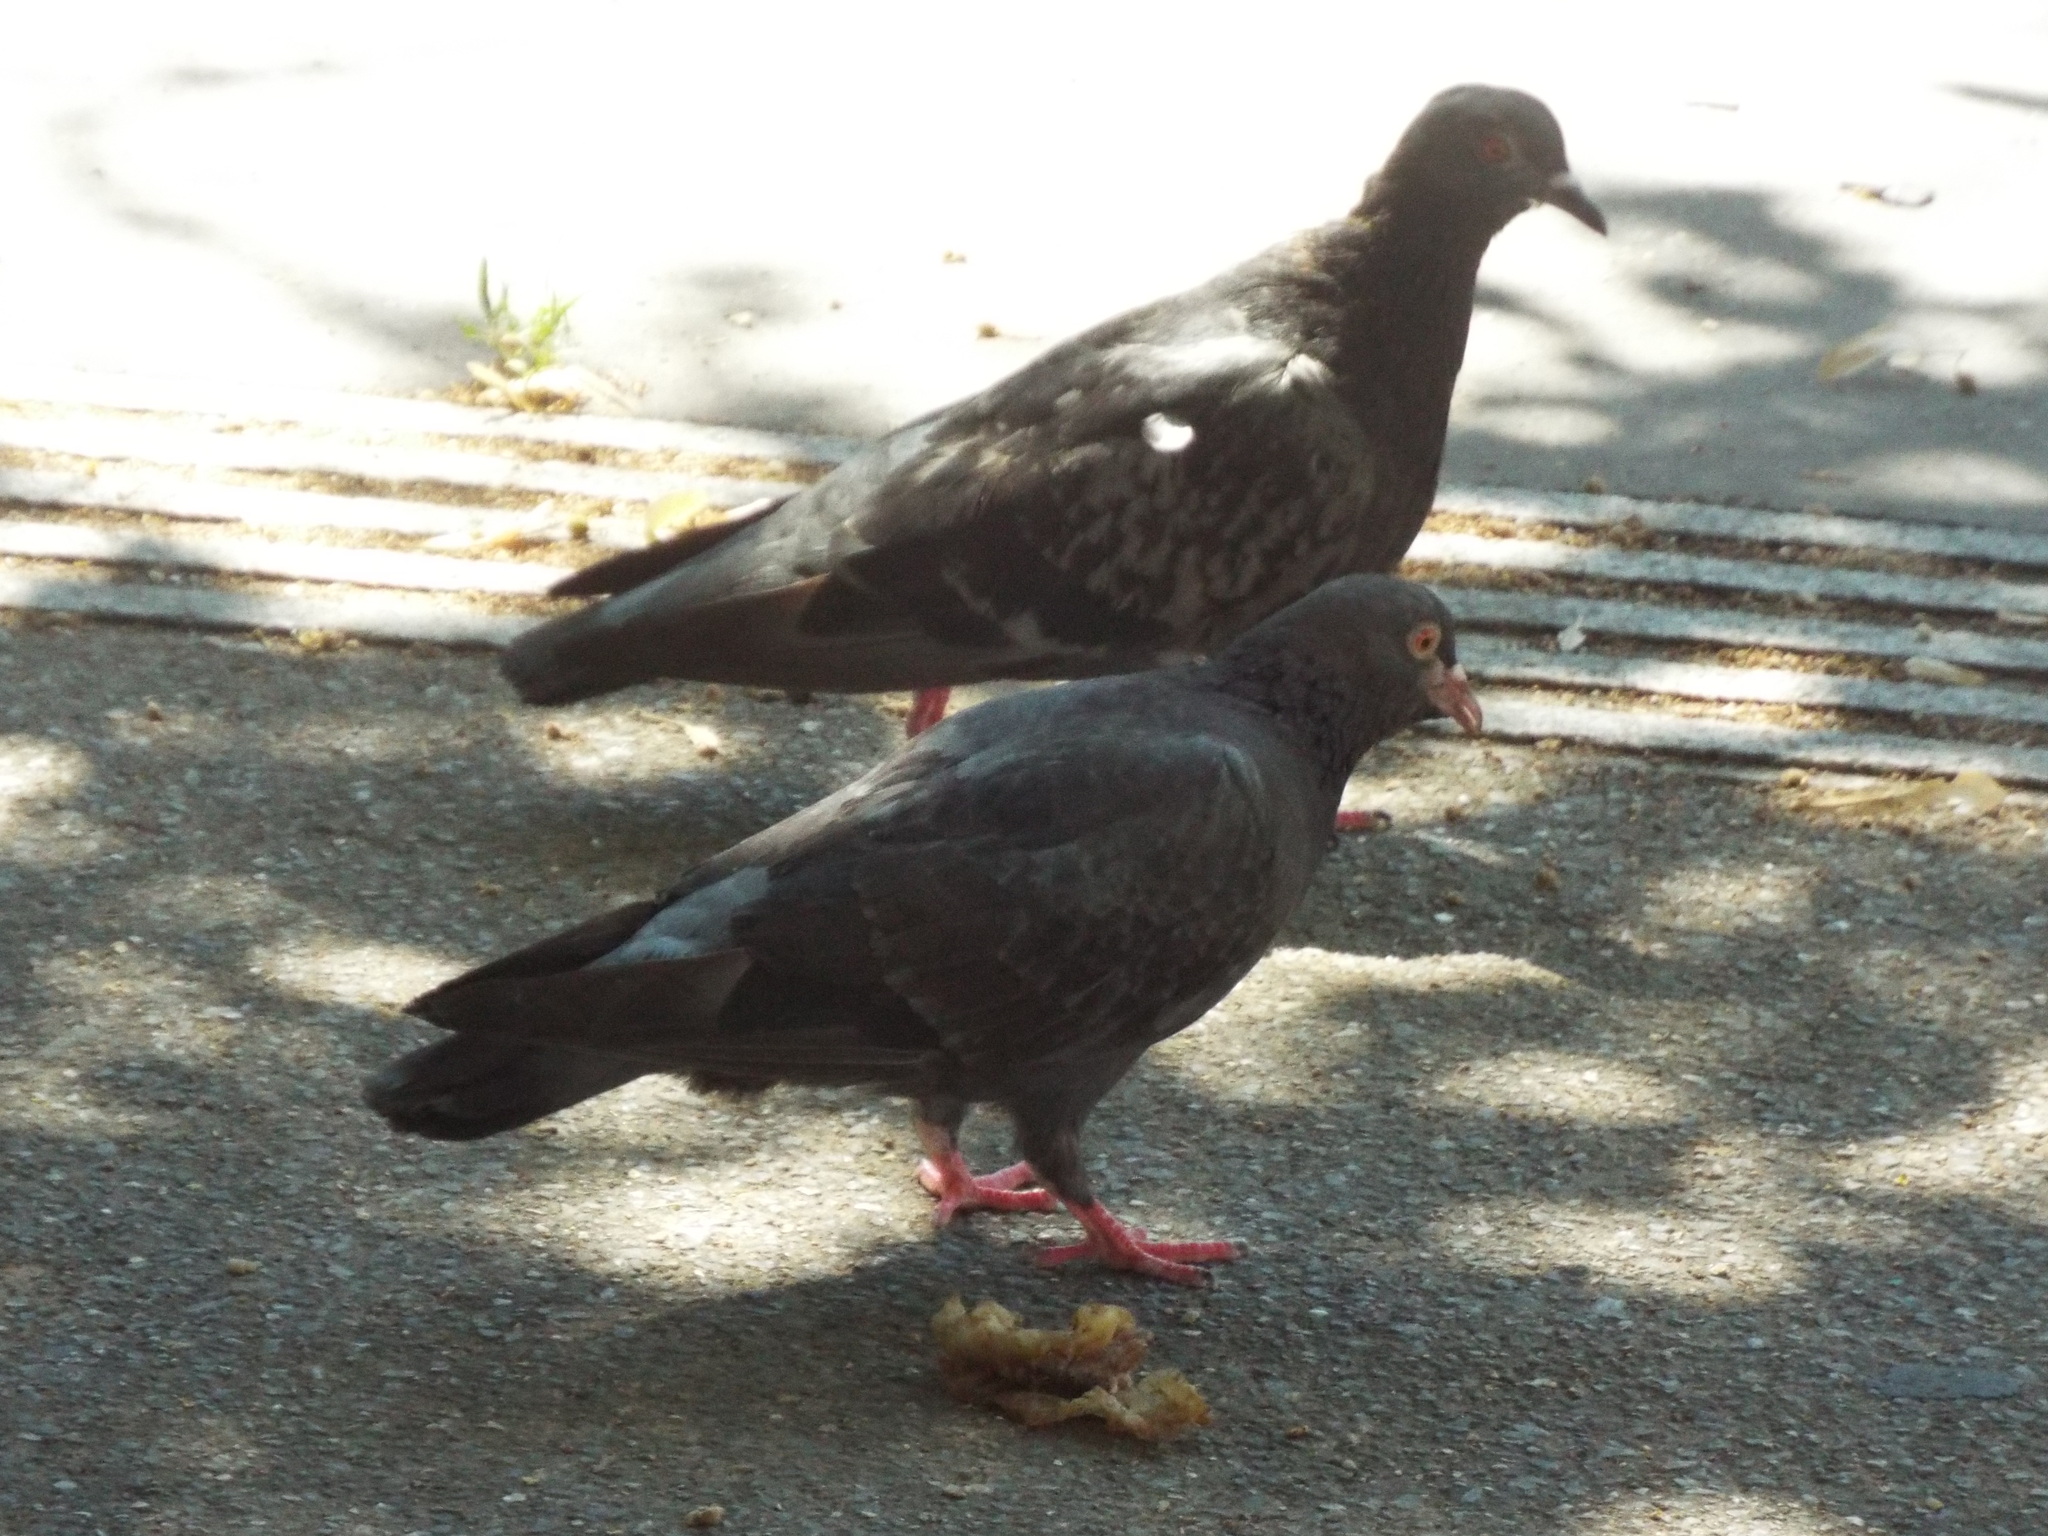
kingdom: Animalia
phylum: Chordata
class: Aves
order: Columbiformes
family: Columbidae
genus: Columba
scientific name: Columba livia
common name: Rock pigeon
